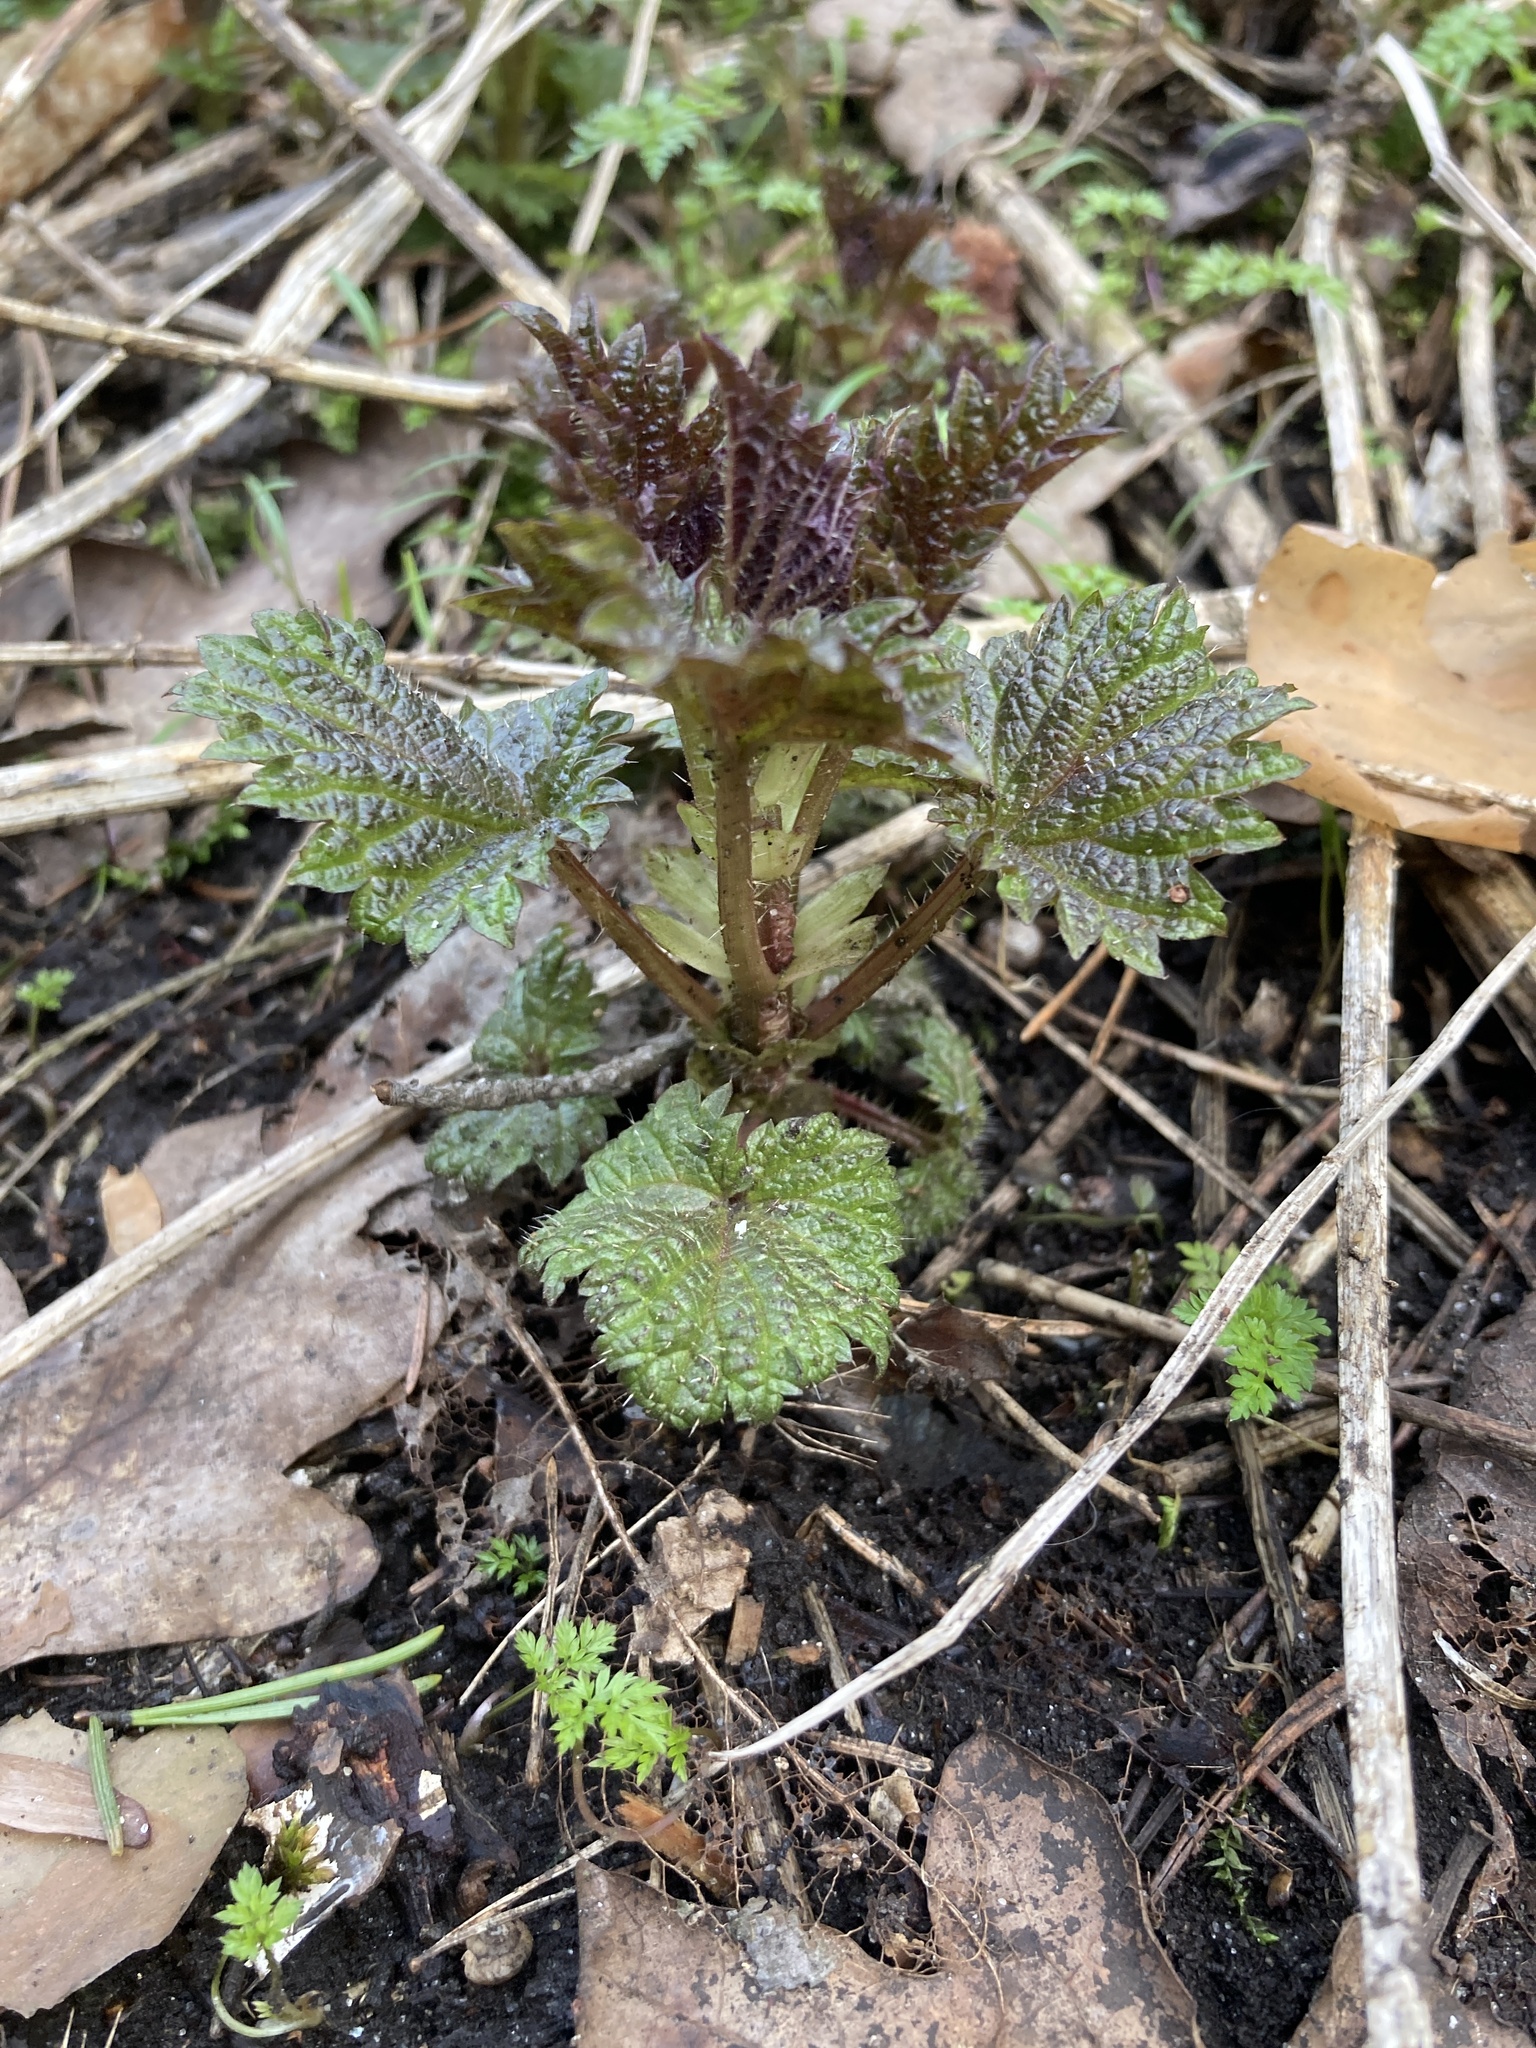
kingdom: Plantae
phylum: Tracheophyta
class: Magnoliopsida
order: Rosales
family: Urticaceae
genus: Urtica
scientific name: Urtica dioica
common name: Common nettle
